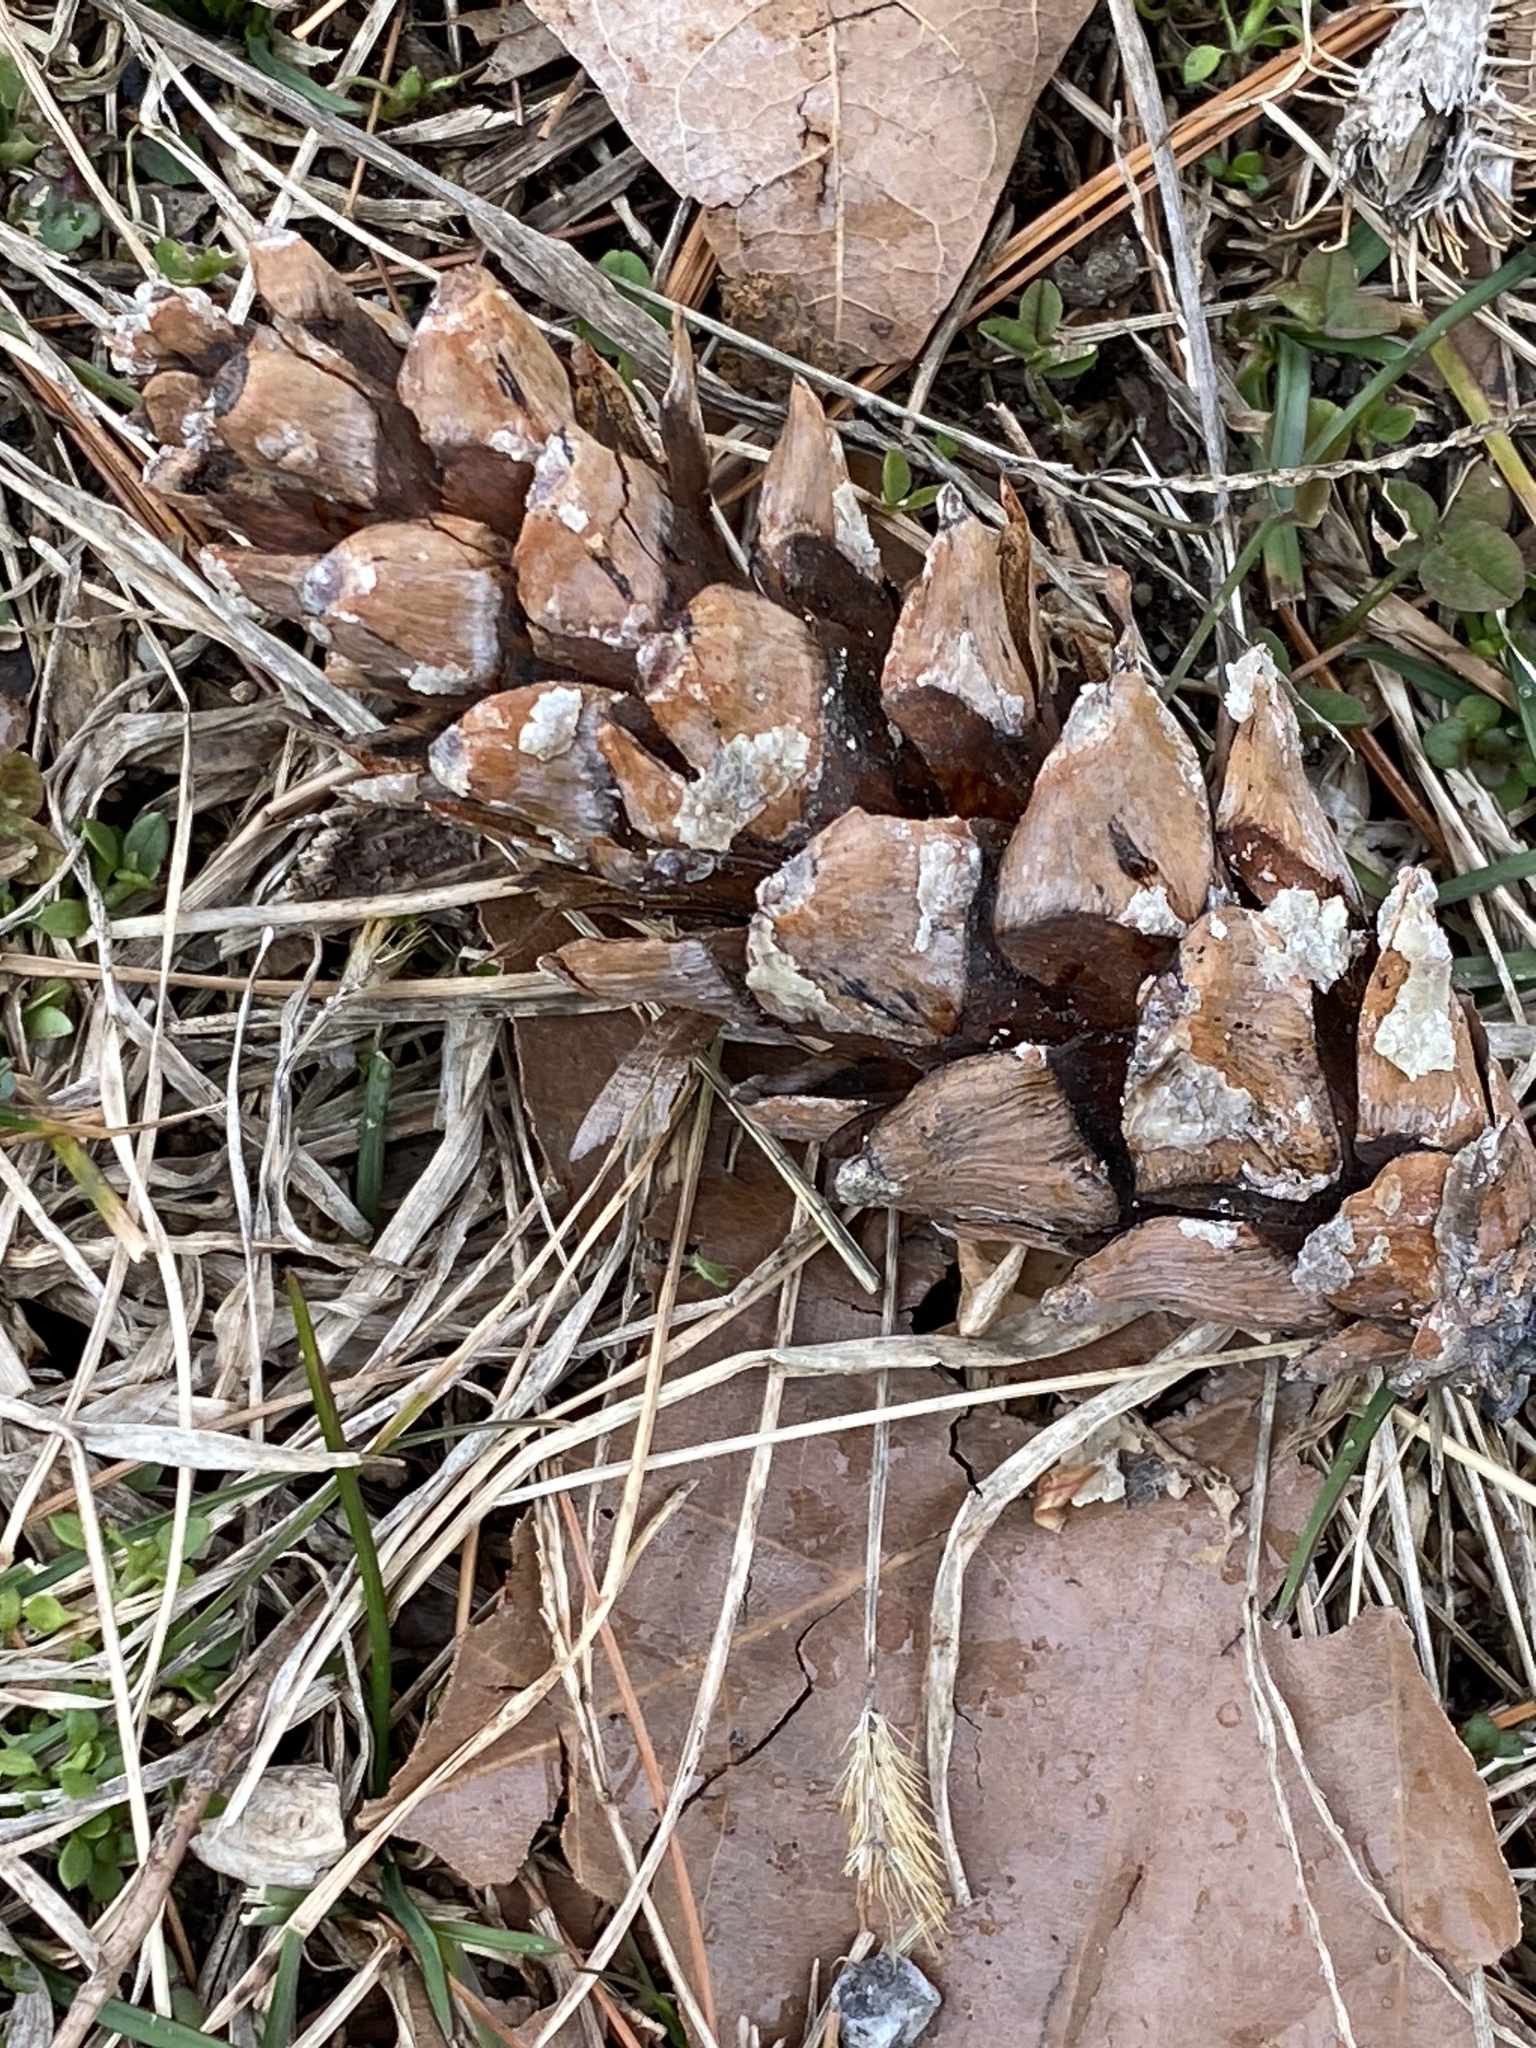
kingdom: Plantae
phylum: Tracheophyta
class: Pinopsida
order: Pinales
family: Pinaceae
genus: Pinus
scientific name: Pinus strobus
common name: Weymouth pine
